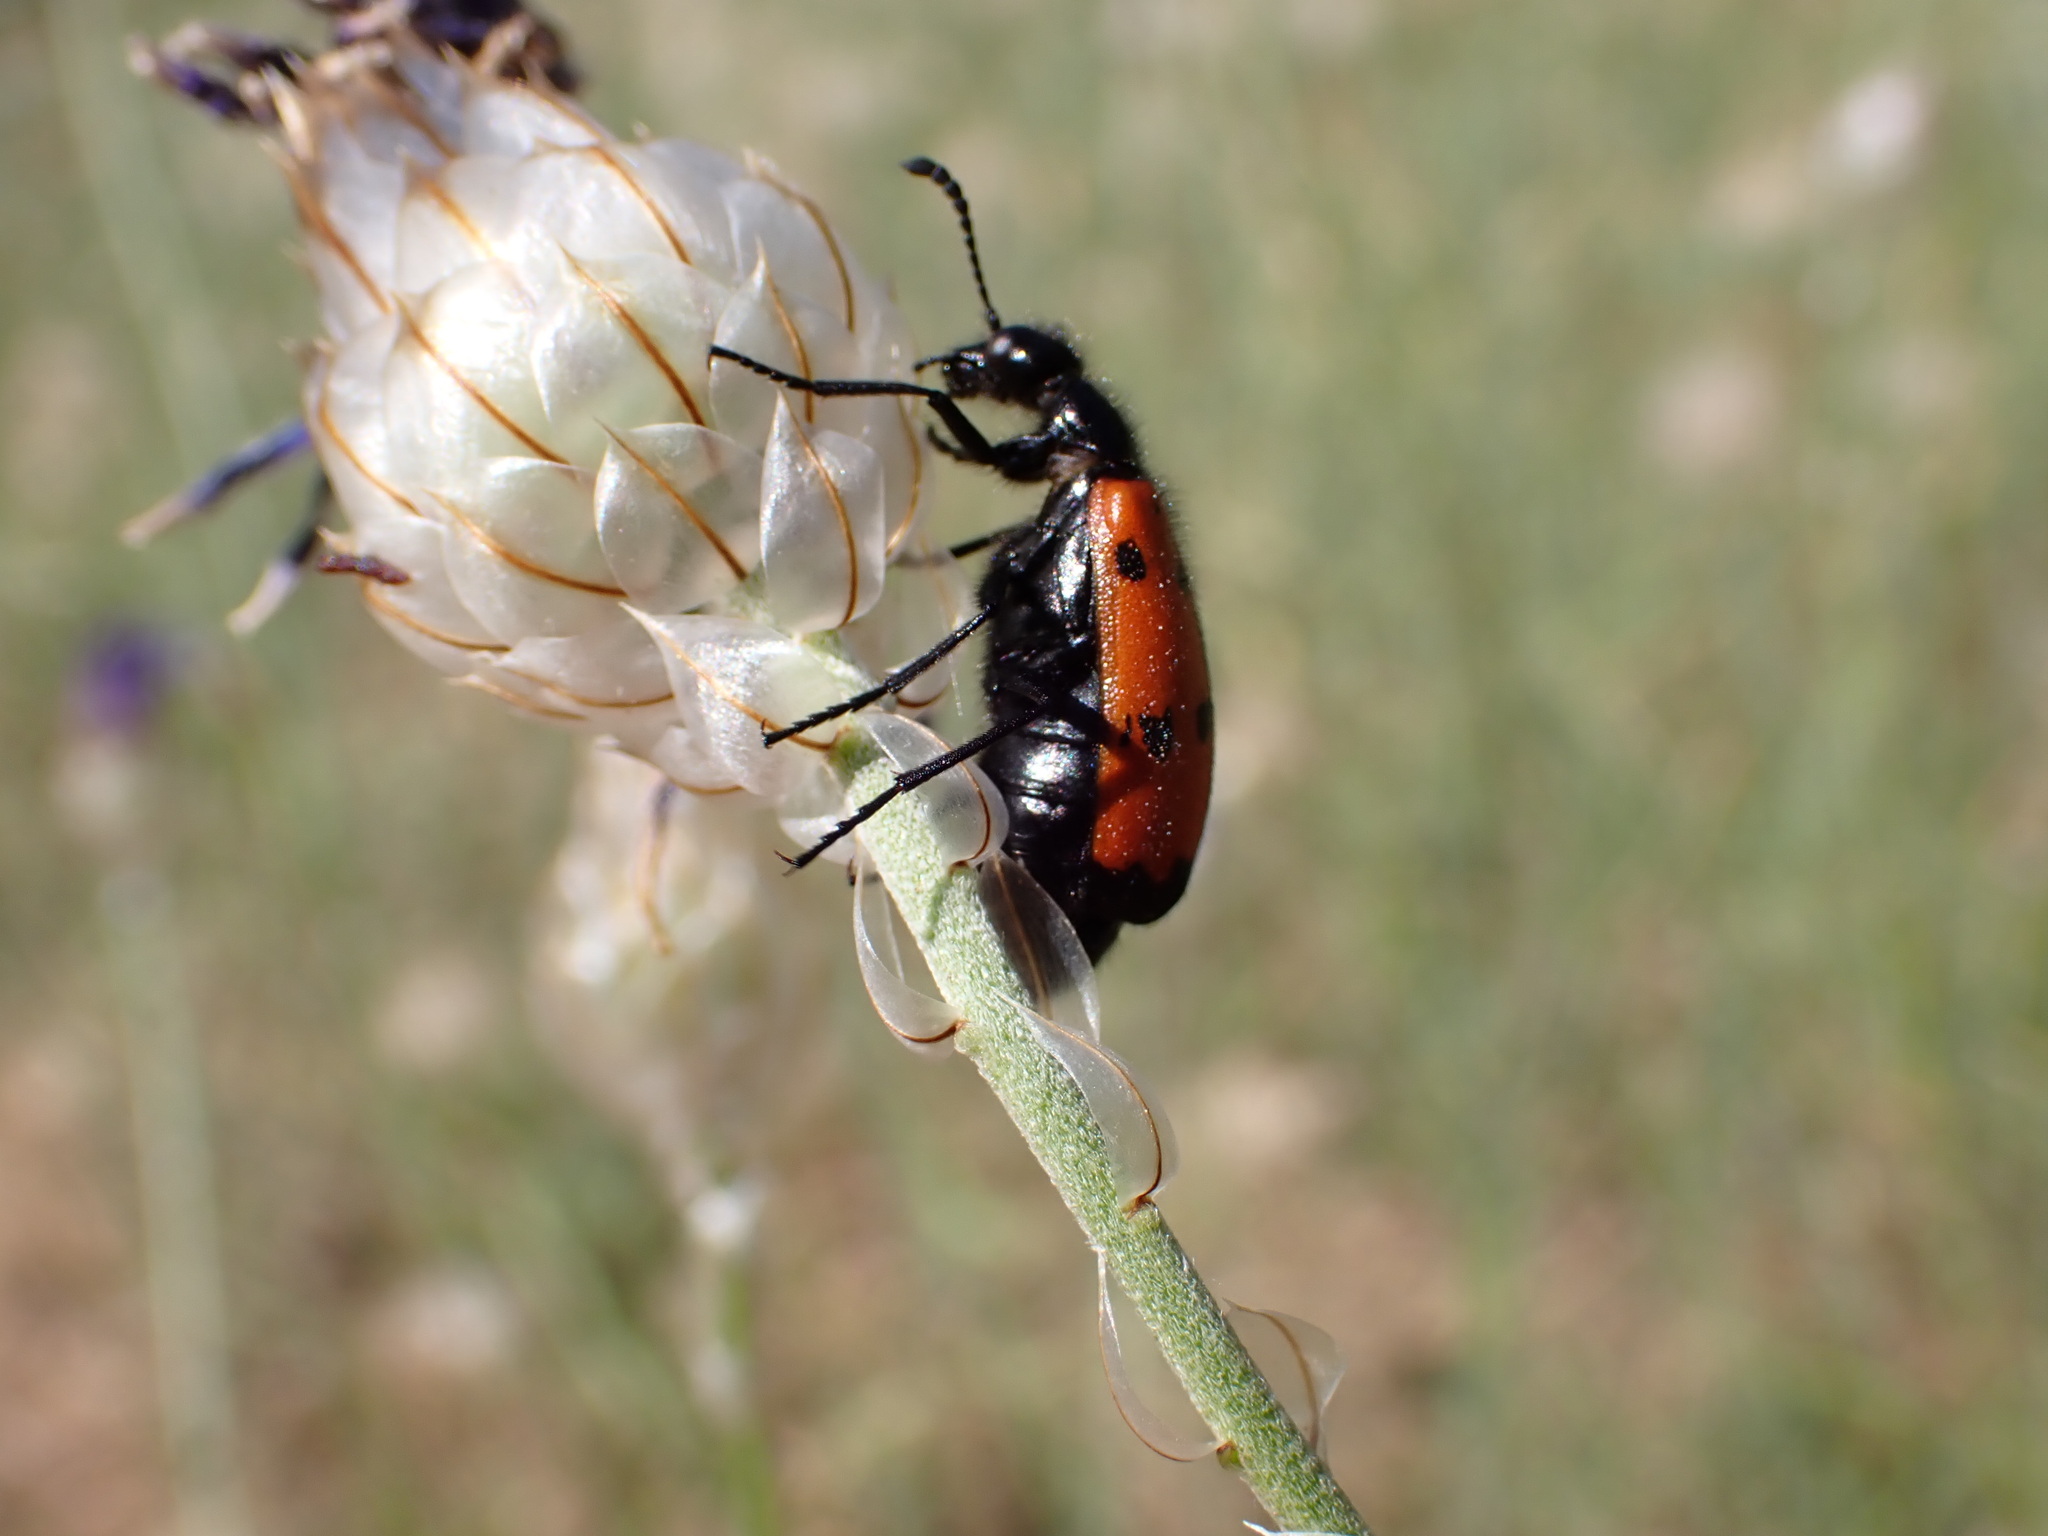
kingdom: Animalia
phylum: Arthropoda
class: Insecta
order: Coleoptera
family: Meloidae
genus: Mylabris
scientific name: Mylabris quadripunctata
